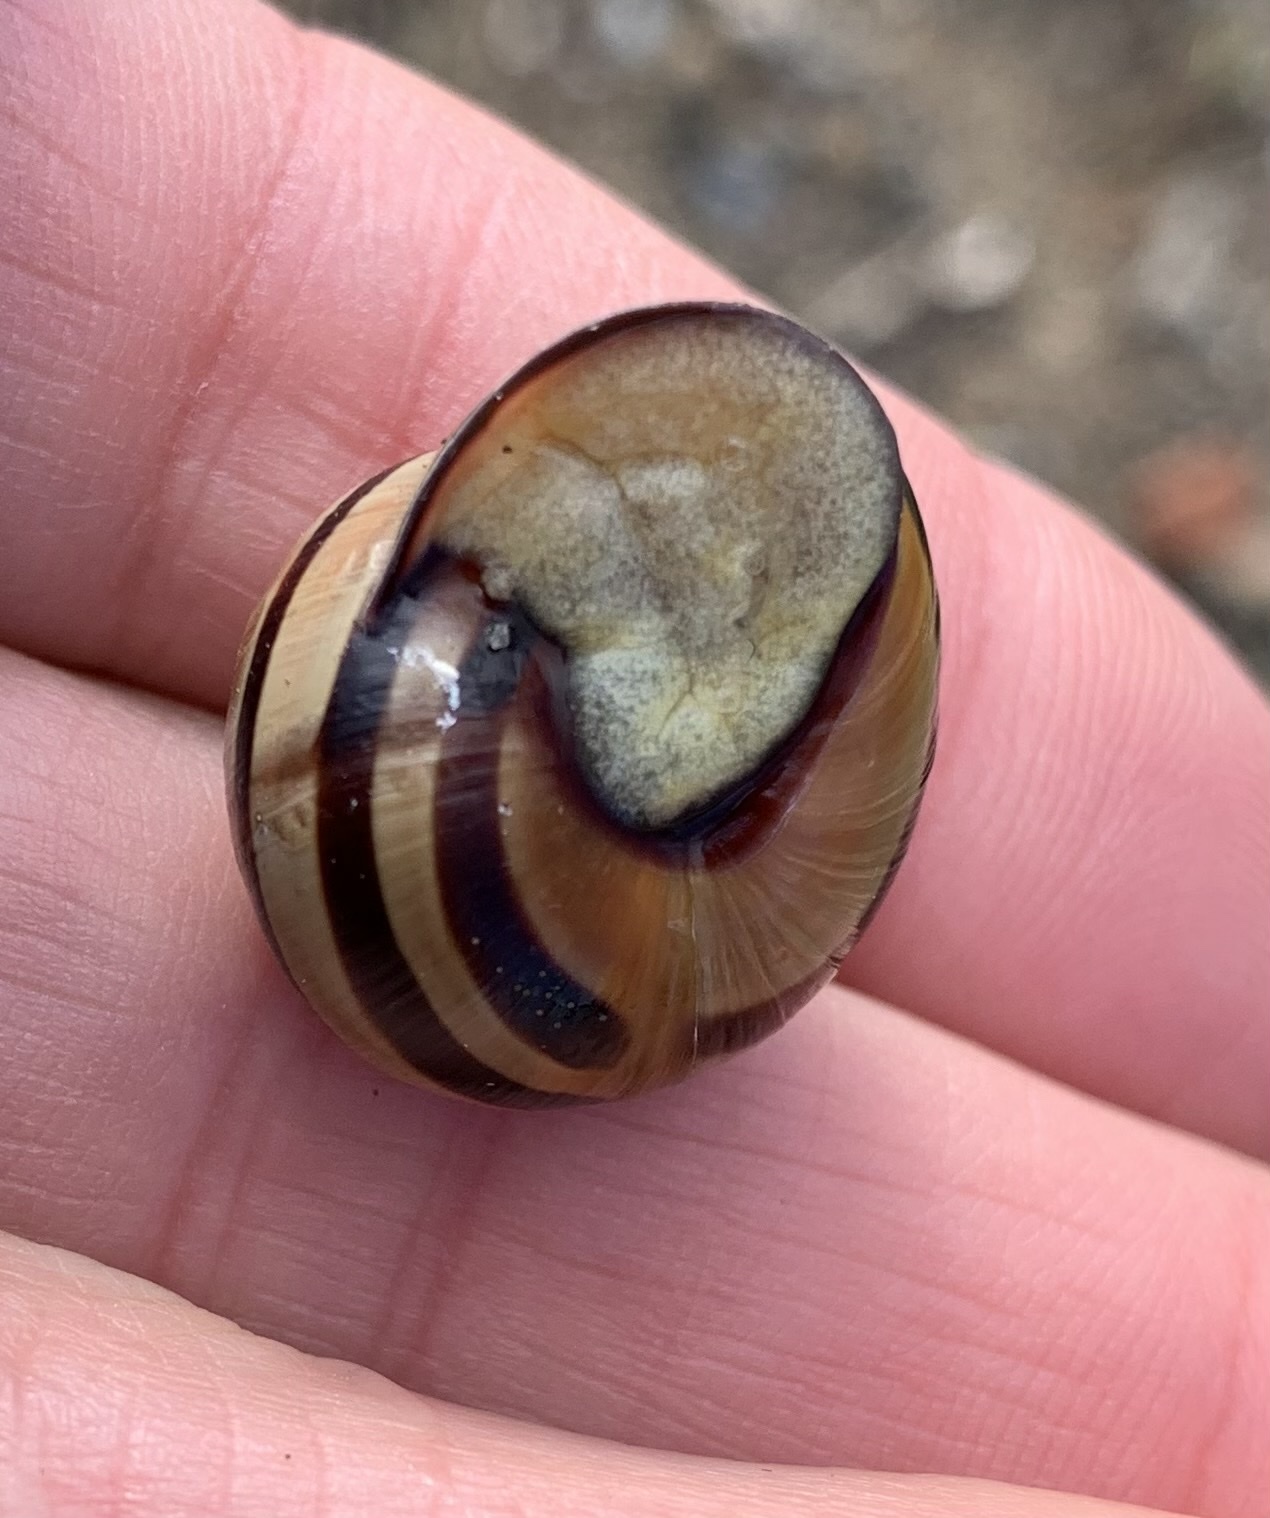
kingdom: Animalia
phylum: Mollusca
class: Gastropoda
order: Stylommatophora
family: Helicidae
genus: Cepaea
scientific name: Cepaea nemoralis
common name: Grovesnail
